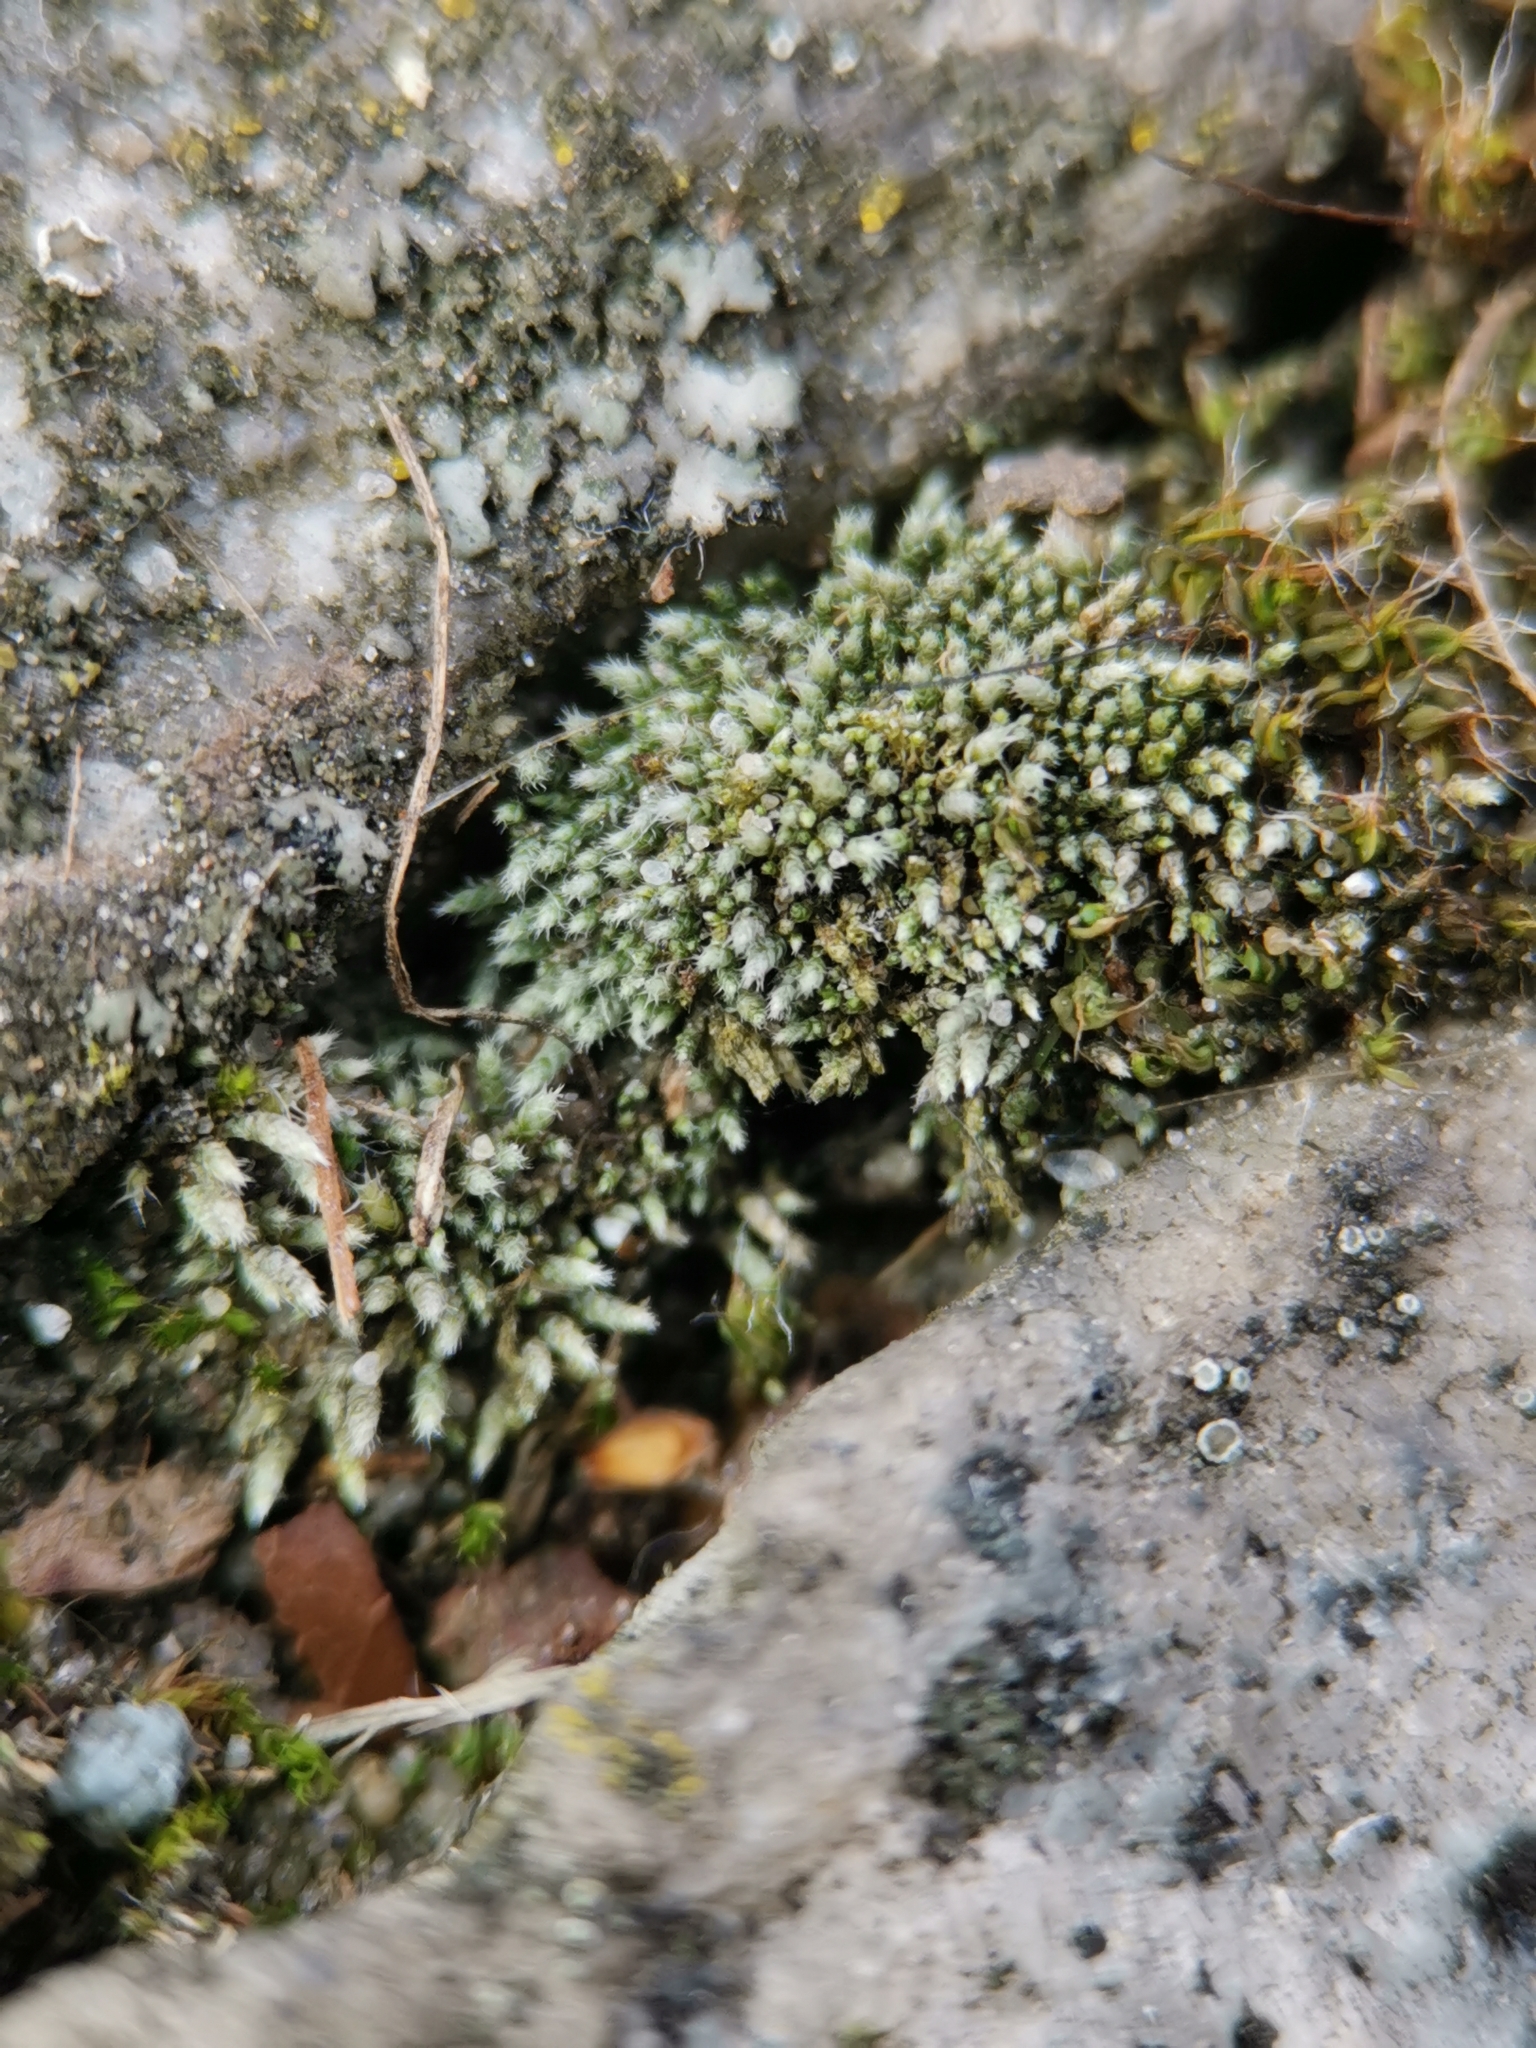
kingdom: Plantae
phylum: Bryophyta
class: Bryopsida
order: Bryales
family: Bryaceae
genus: Bryum
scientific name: Bryum argenteum
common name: Silver-moss
